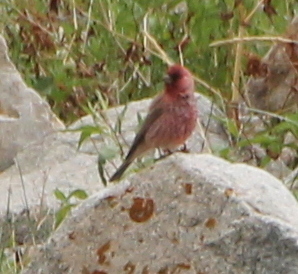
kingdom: Animalia
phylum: Chordata
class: Aves
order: Passeriformes
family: Fringillidae
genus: Carpodacus
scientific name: Carpodacus rubicilla
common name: Great rosefinch
